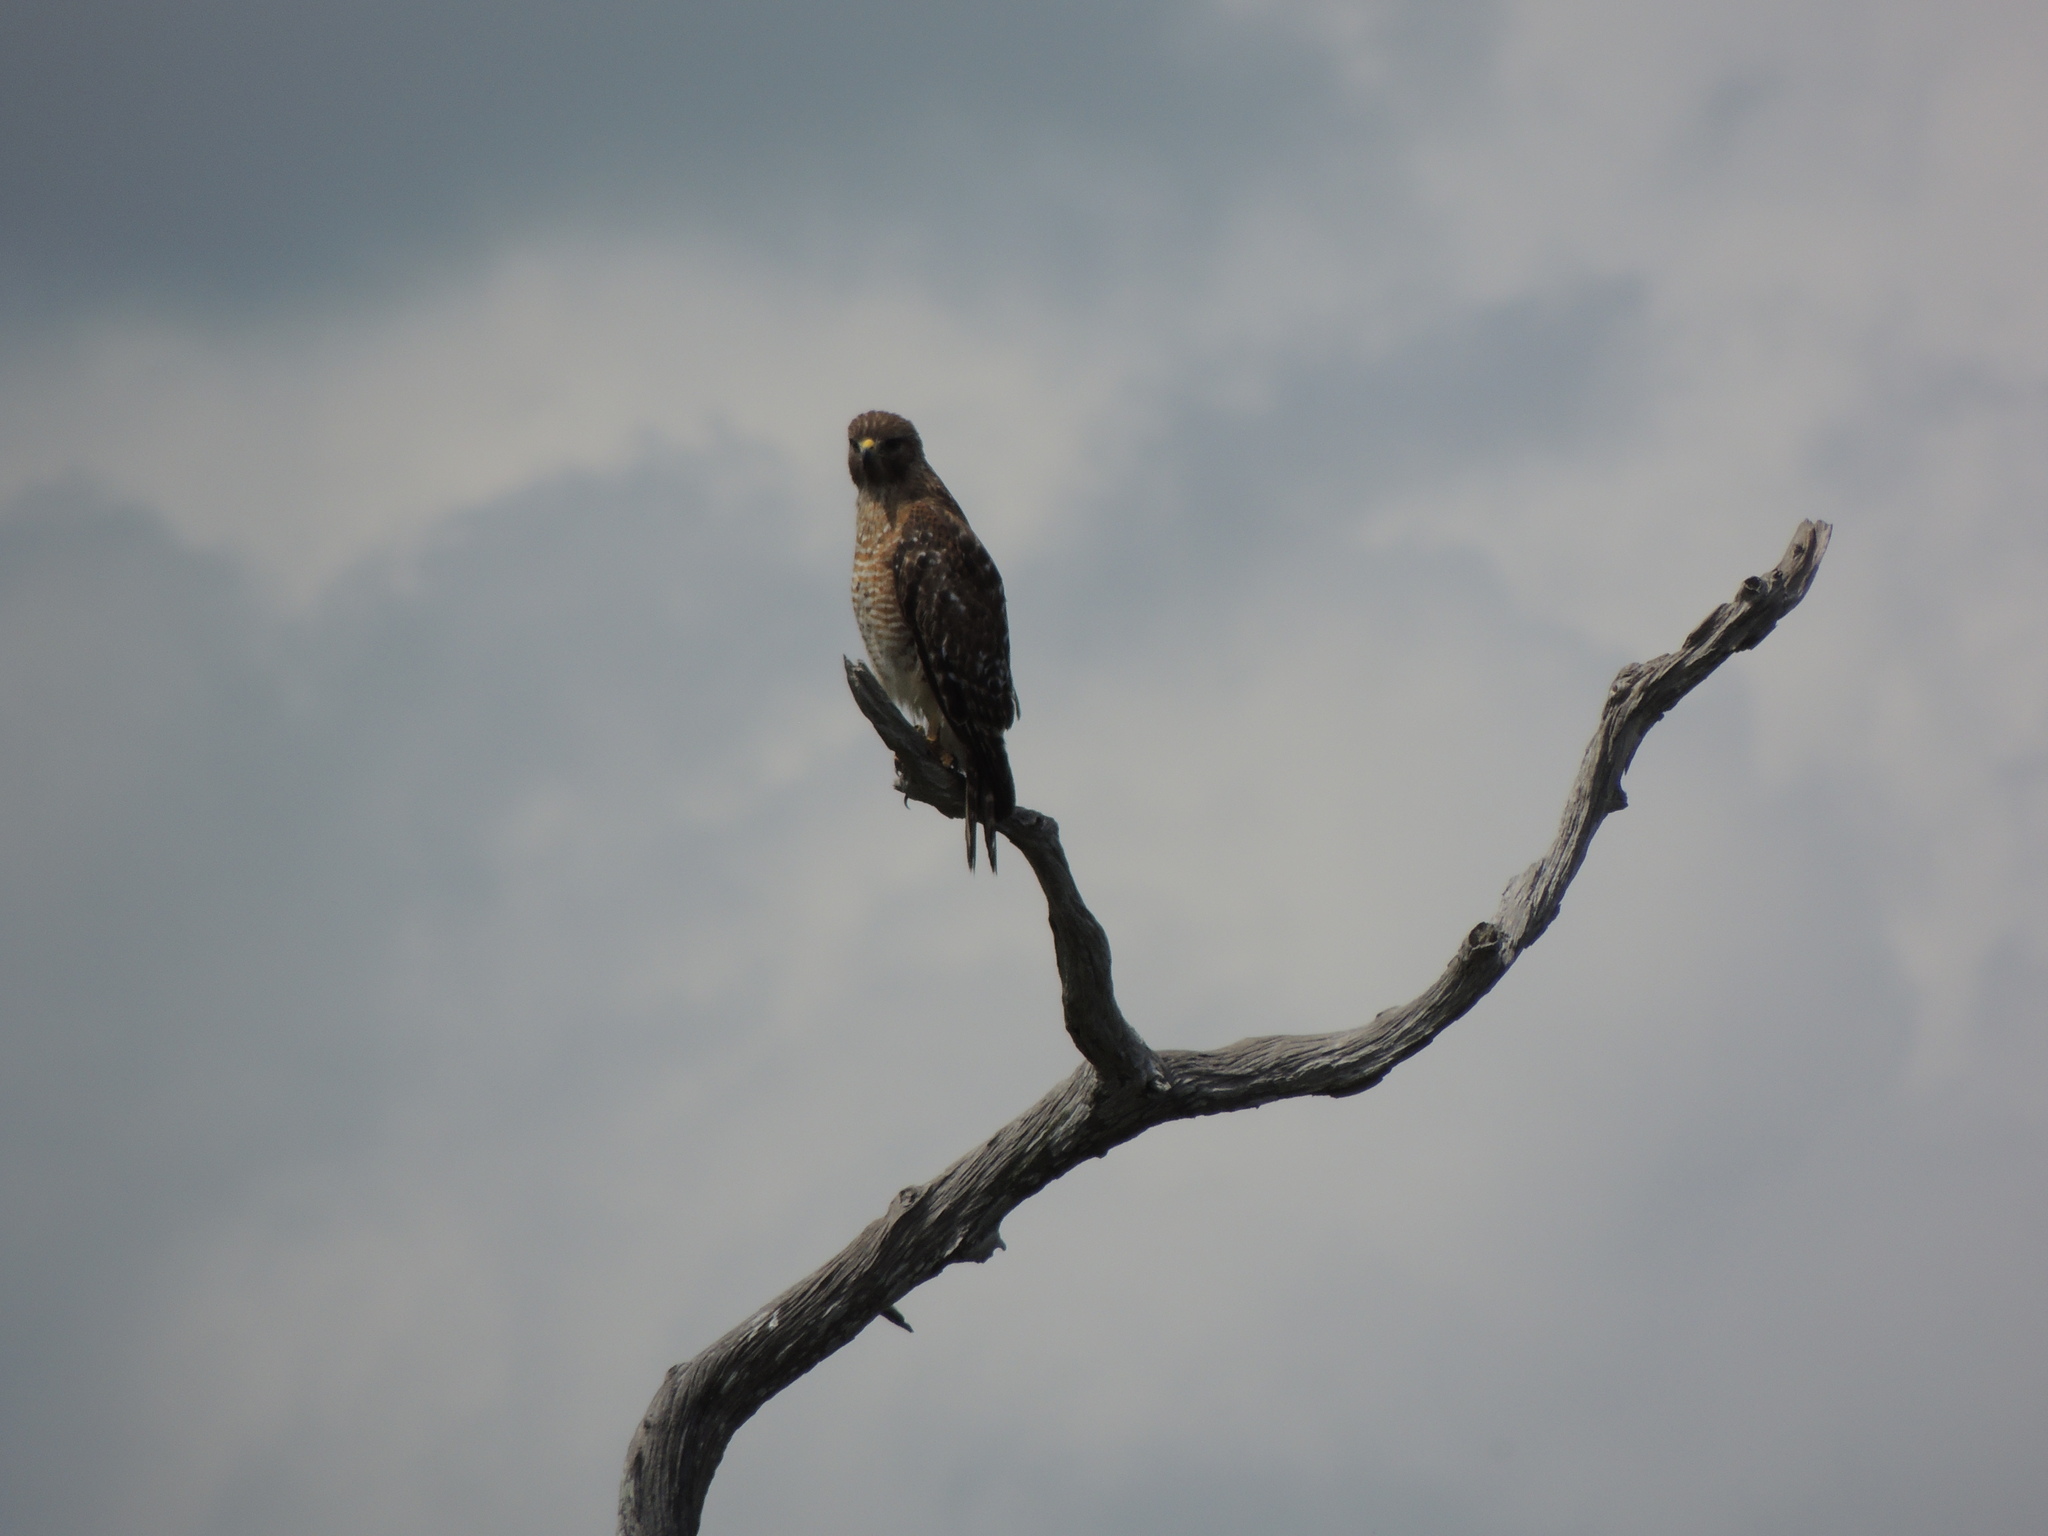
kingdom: Animalia
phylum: Chordata
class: Aves
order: Accipitriformes
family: Accipitridae
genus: Buteo
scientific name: Buteo lineatus
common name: Red-shouldered hawk
